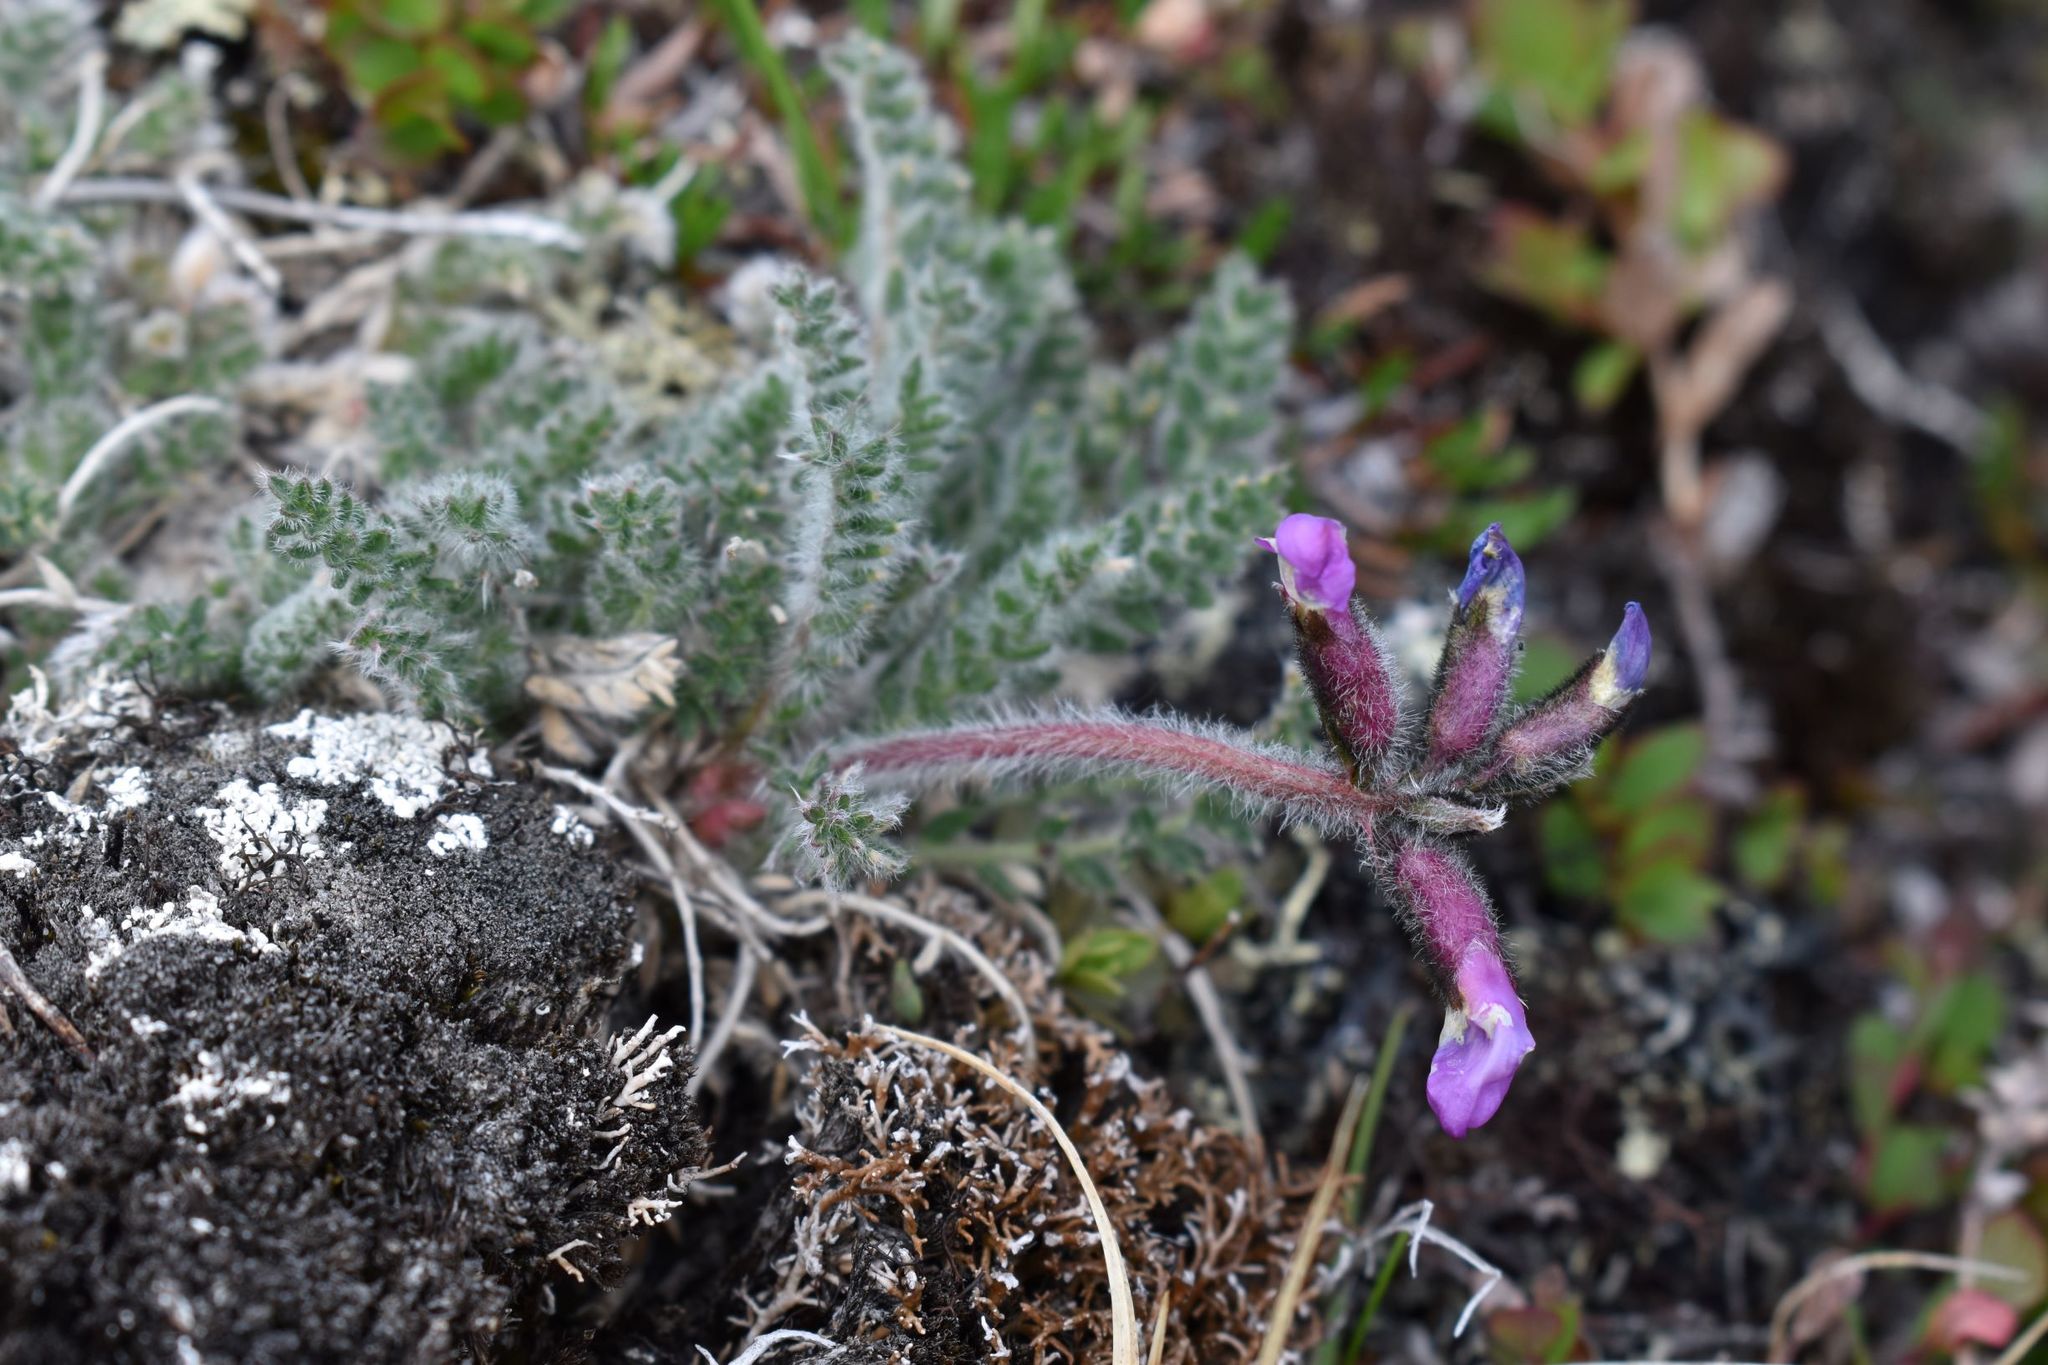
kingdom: Plantae
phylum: Tracheophyta
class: Magnoliopsida
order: Fabales
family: Fabaceae
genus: Oxytropis
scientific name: Oxytropis arctica
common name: Arctic locoweed
